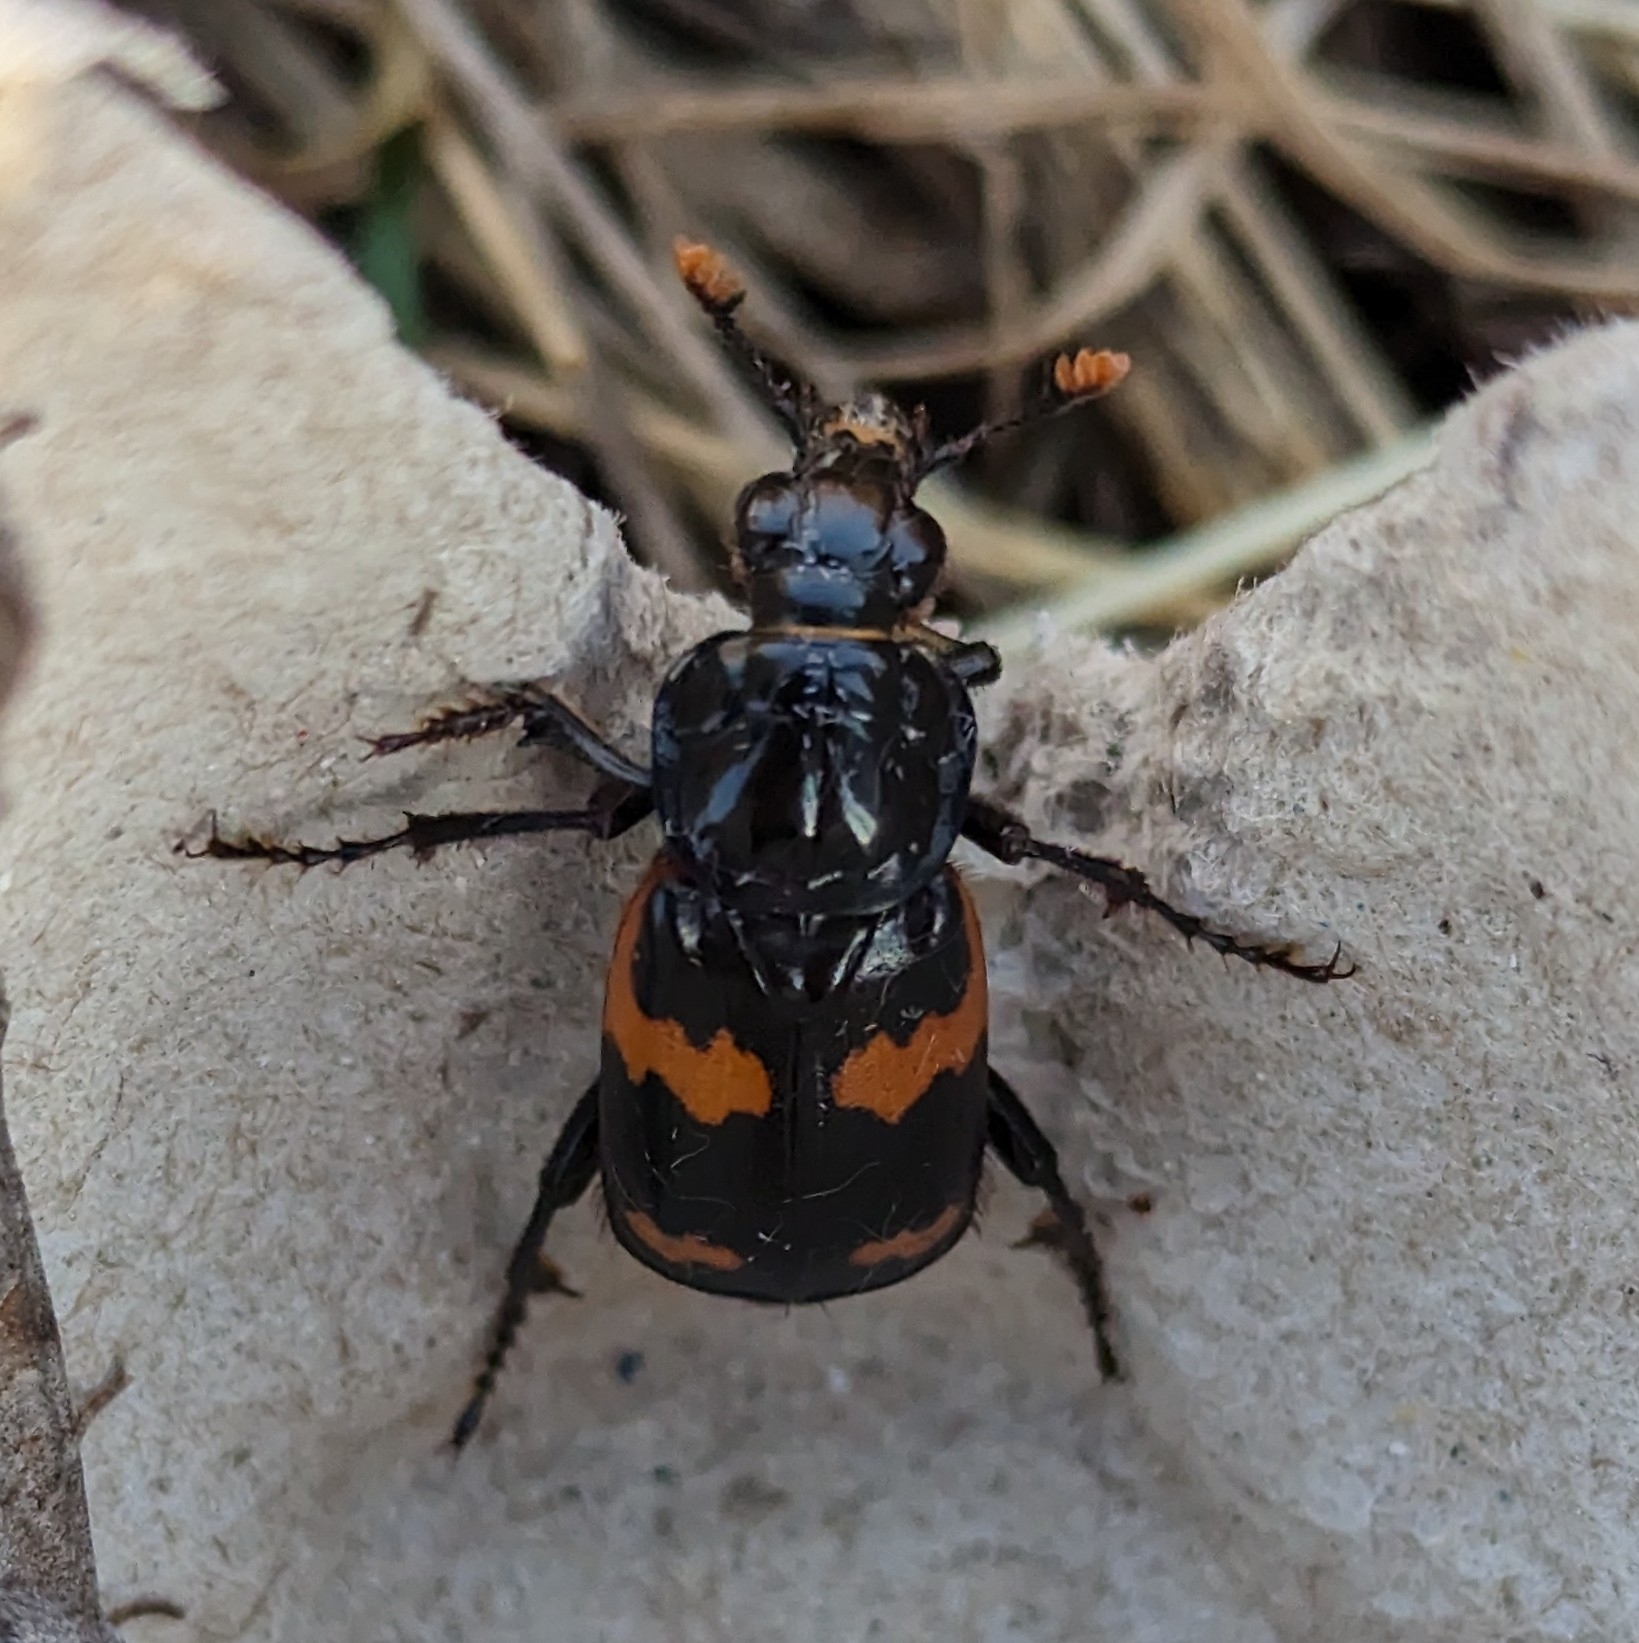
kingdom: Animalia
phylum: Arthropoda
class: Insecta
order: Coleoptera
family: Staphylinidae
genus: Nicrophorus
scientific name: Nicrophorus sayi
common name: Say's burying beetle
